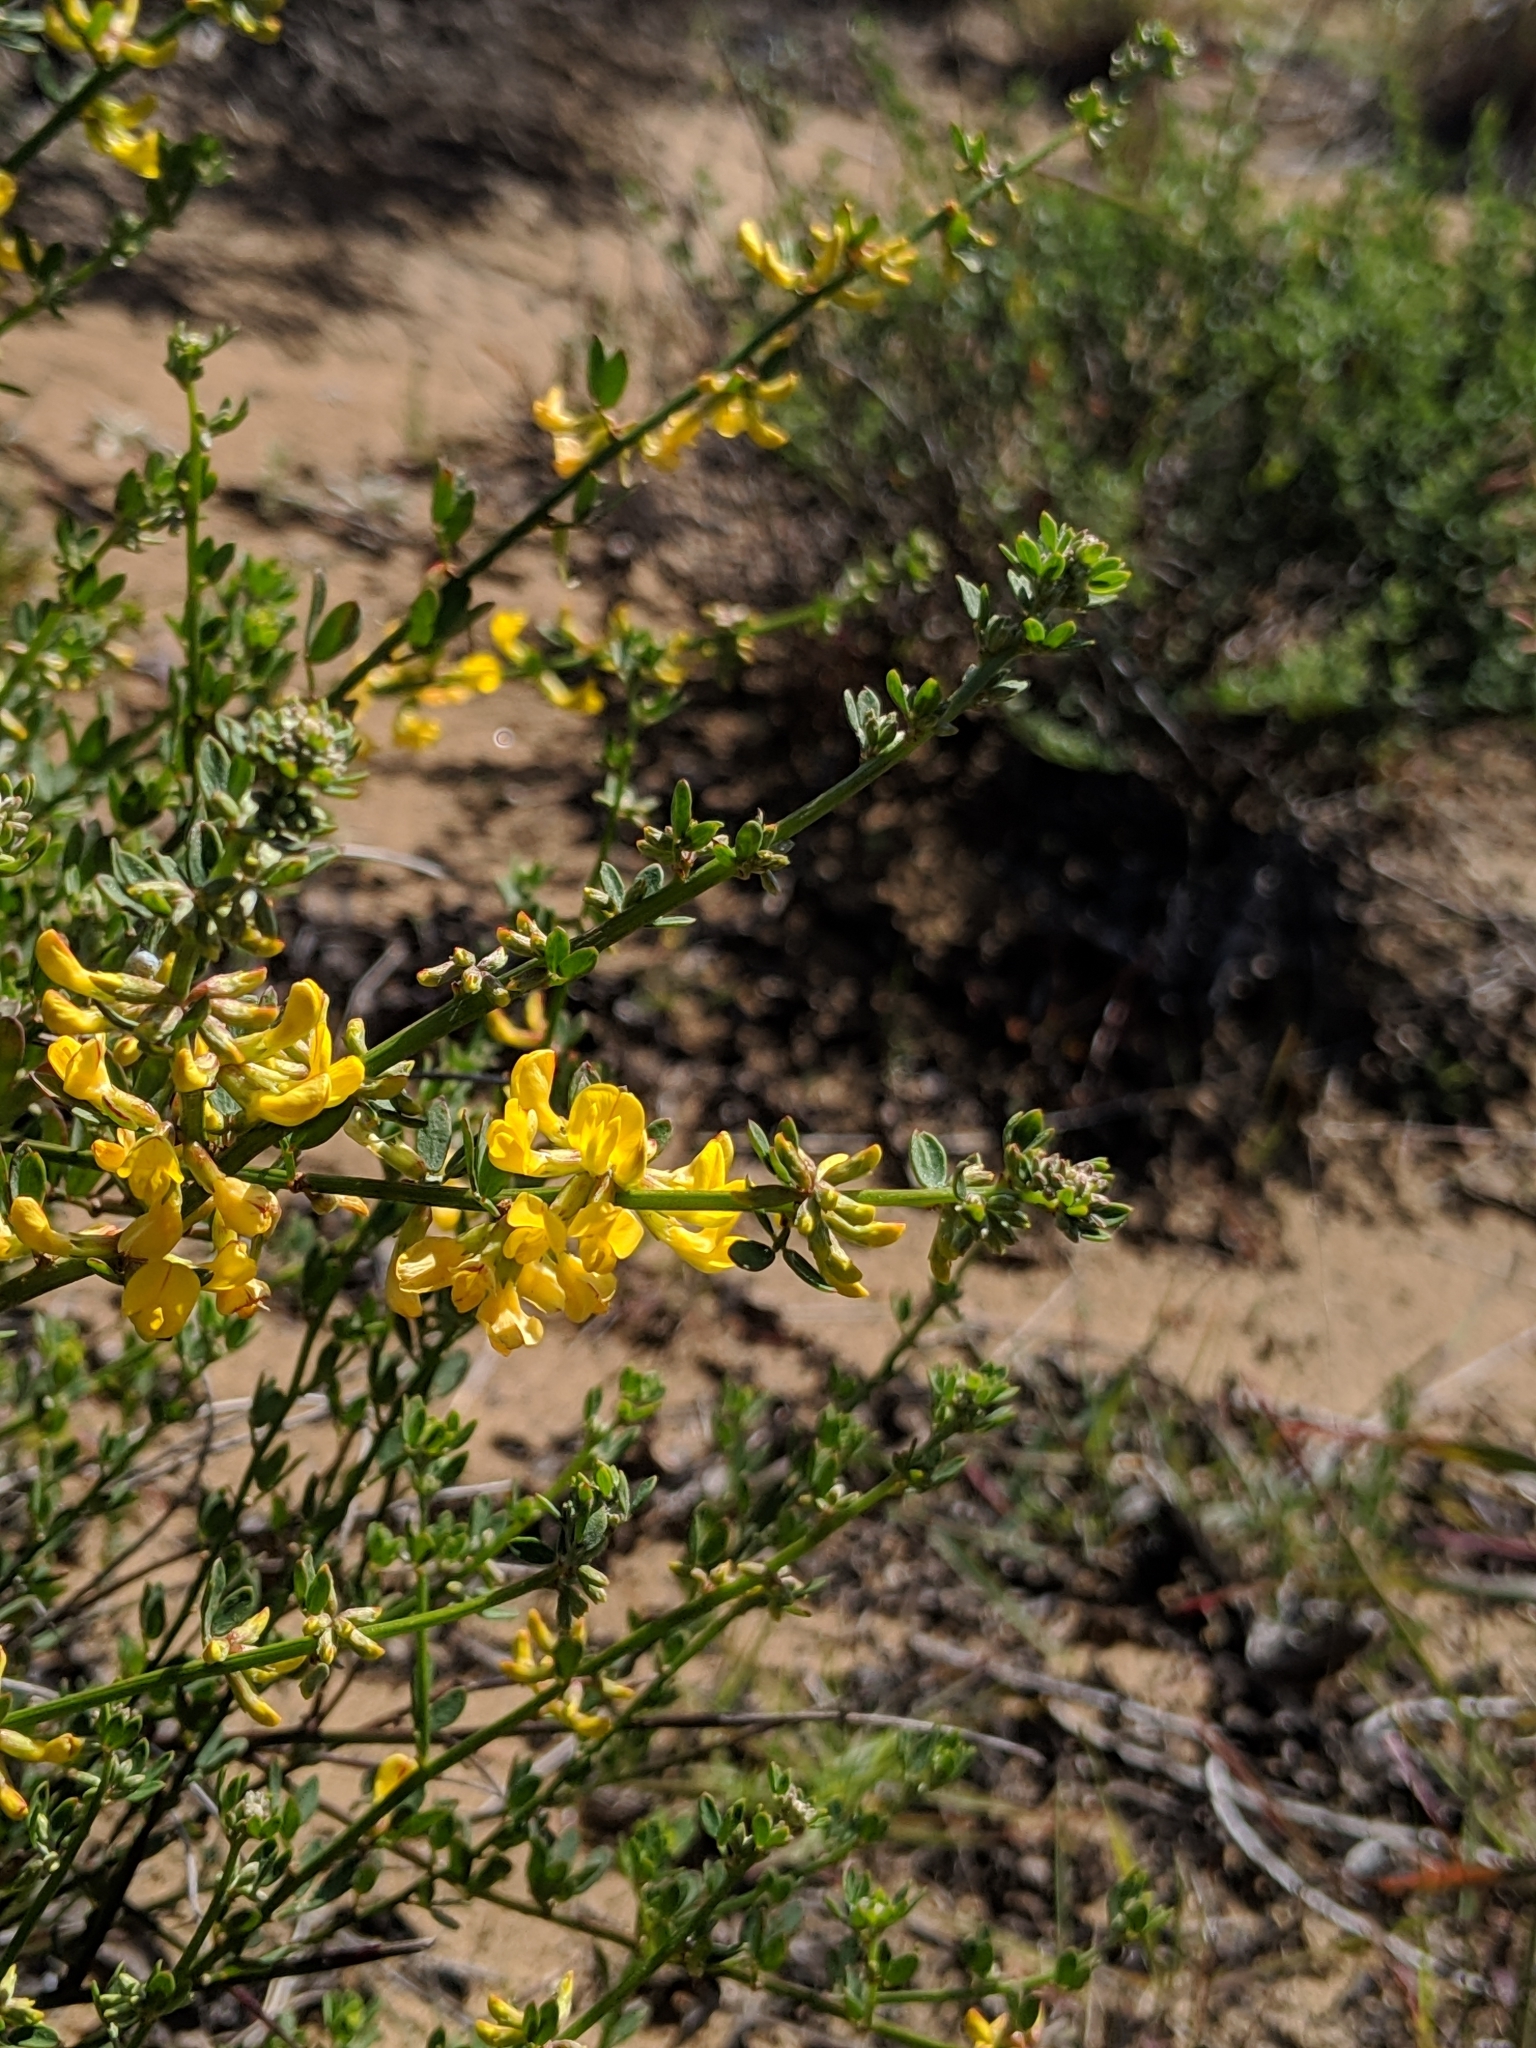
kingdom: Plantae
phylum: Tracheophyta
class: Magnoliopsida
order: Fabales
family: Fabaceae
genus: Acmispon
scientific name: Acmispon glaber
